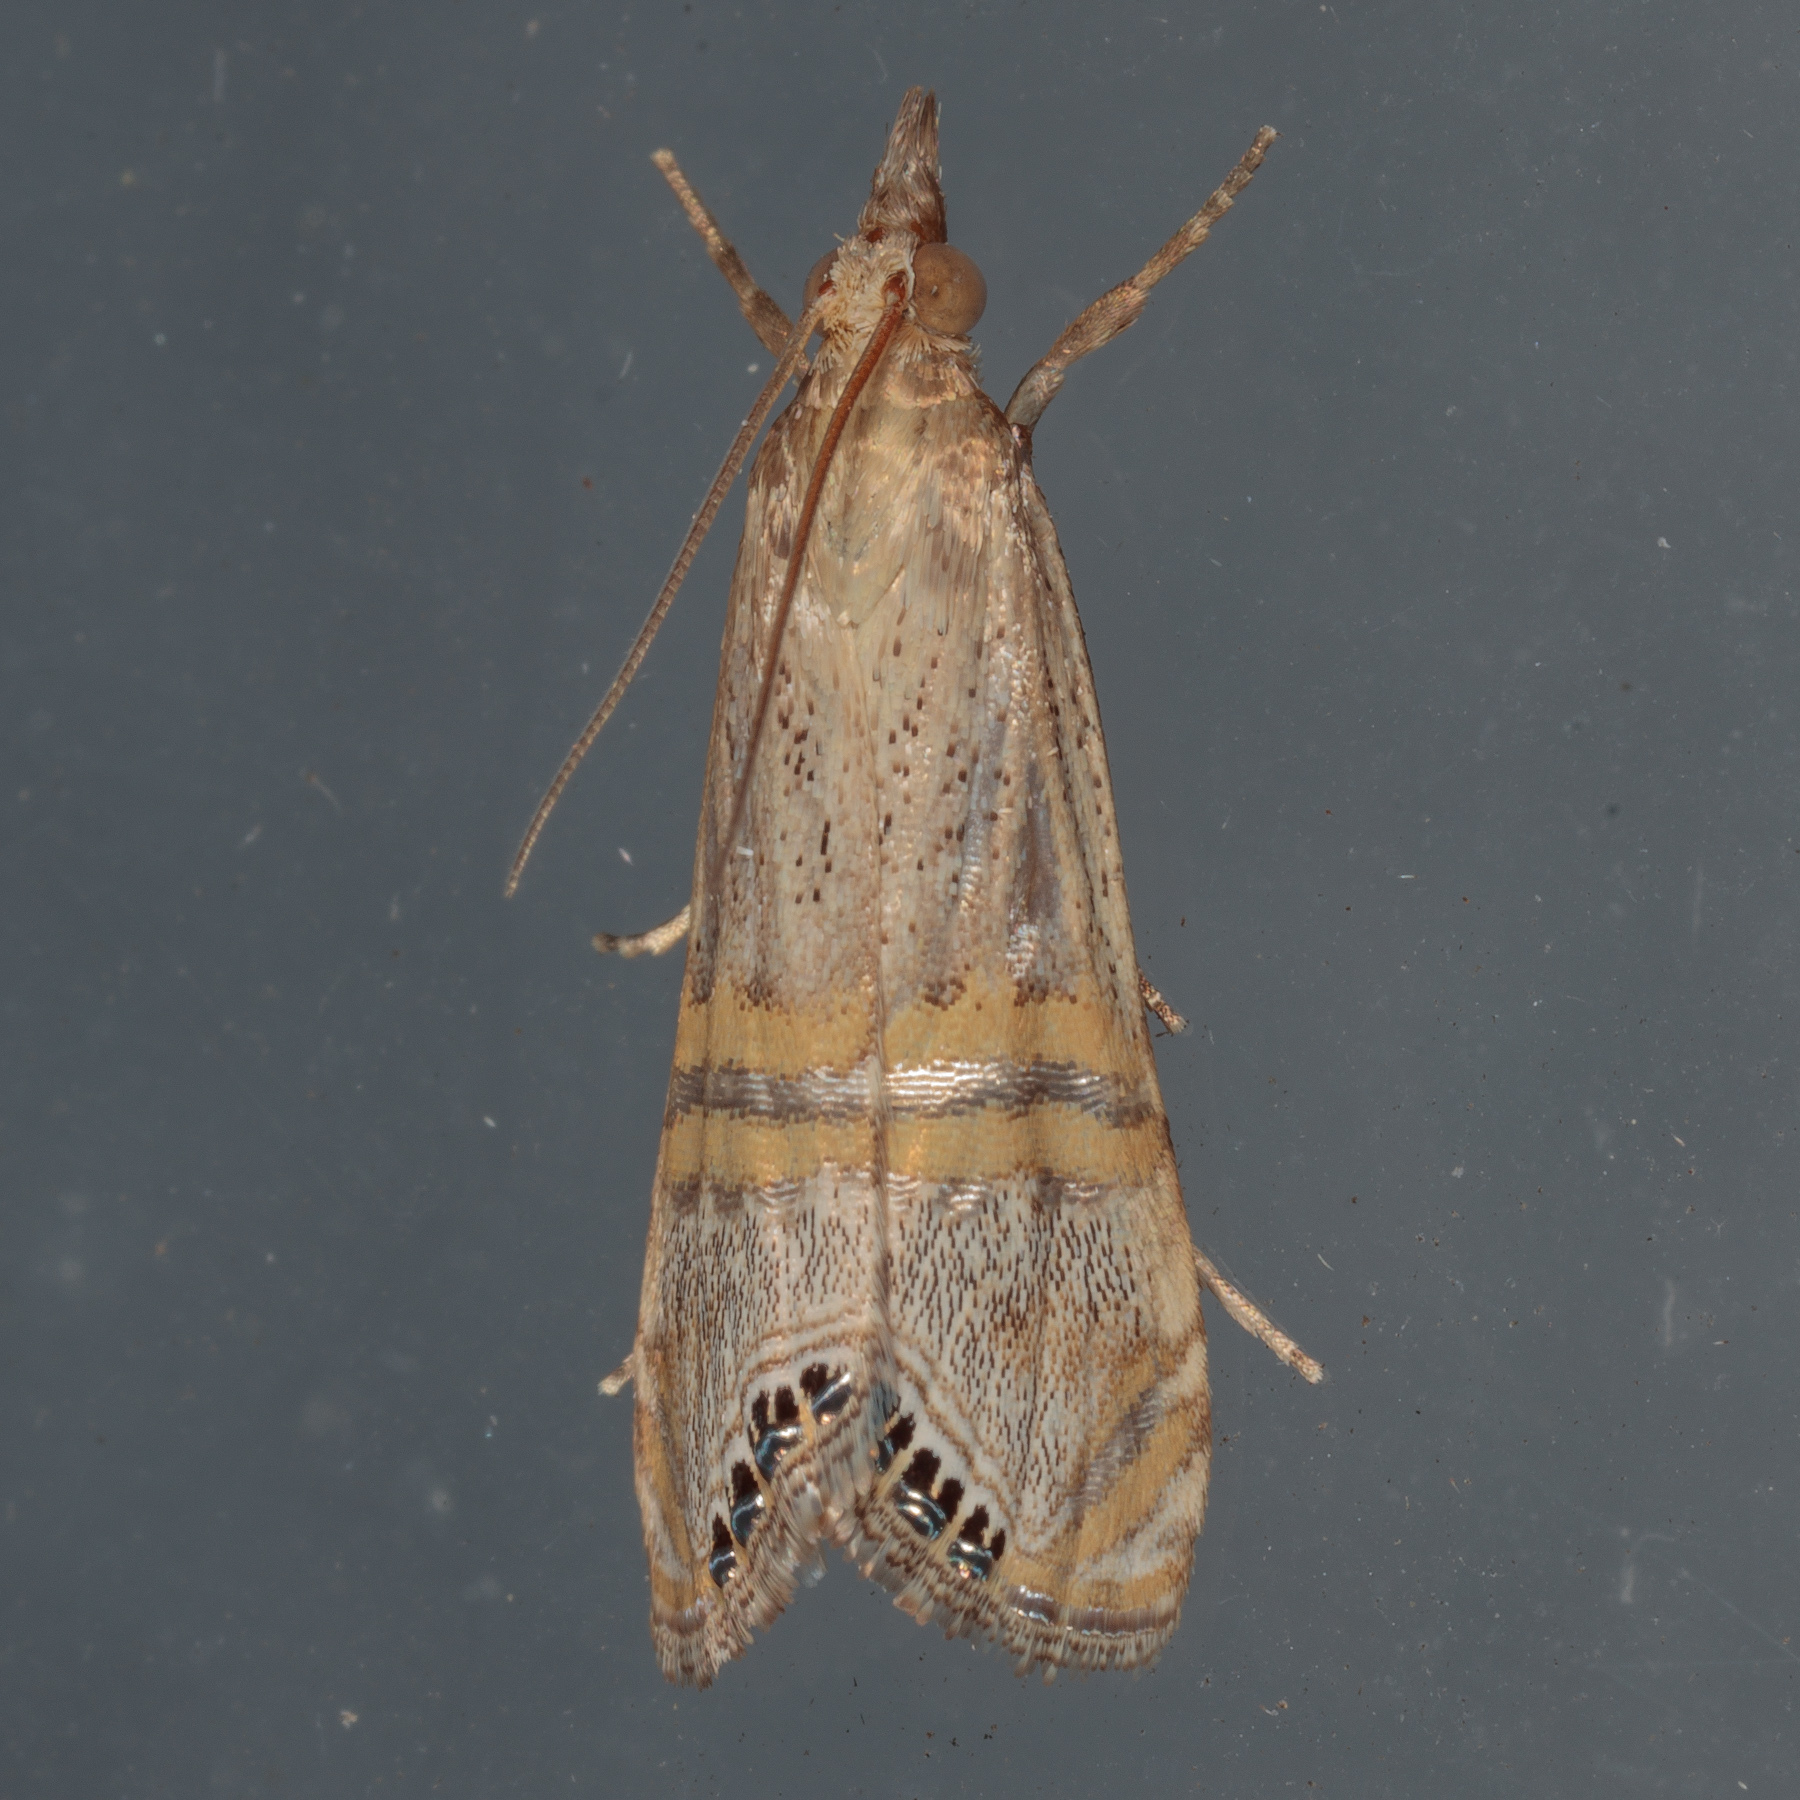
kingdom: Animalia
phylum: Arthropoda
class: Insecta
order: Lepidoptera
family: Crambidae
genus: Euchromius
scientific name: Euchromius ocellea
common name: Necklace veneer moth
